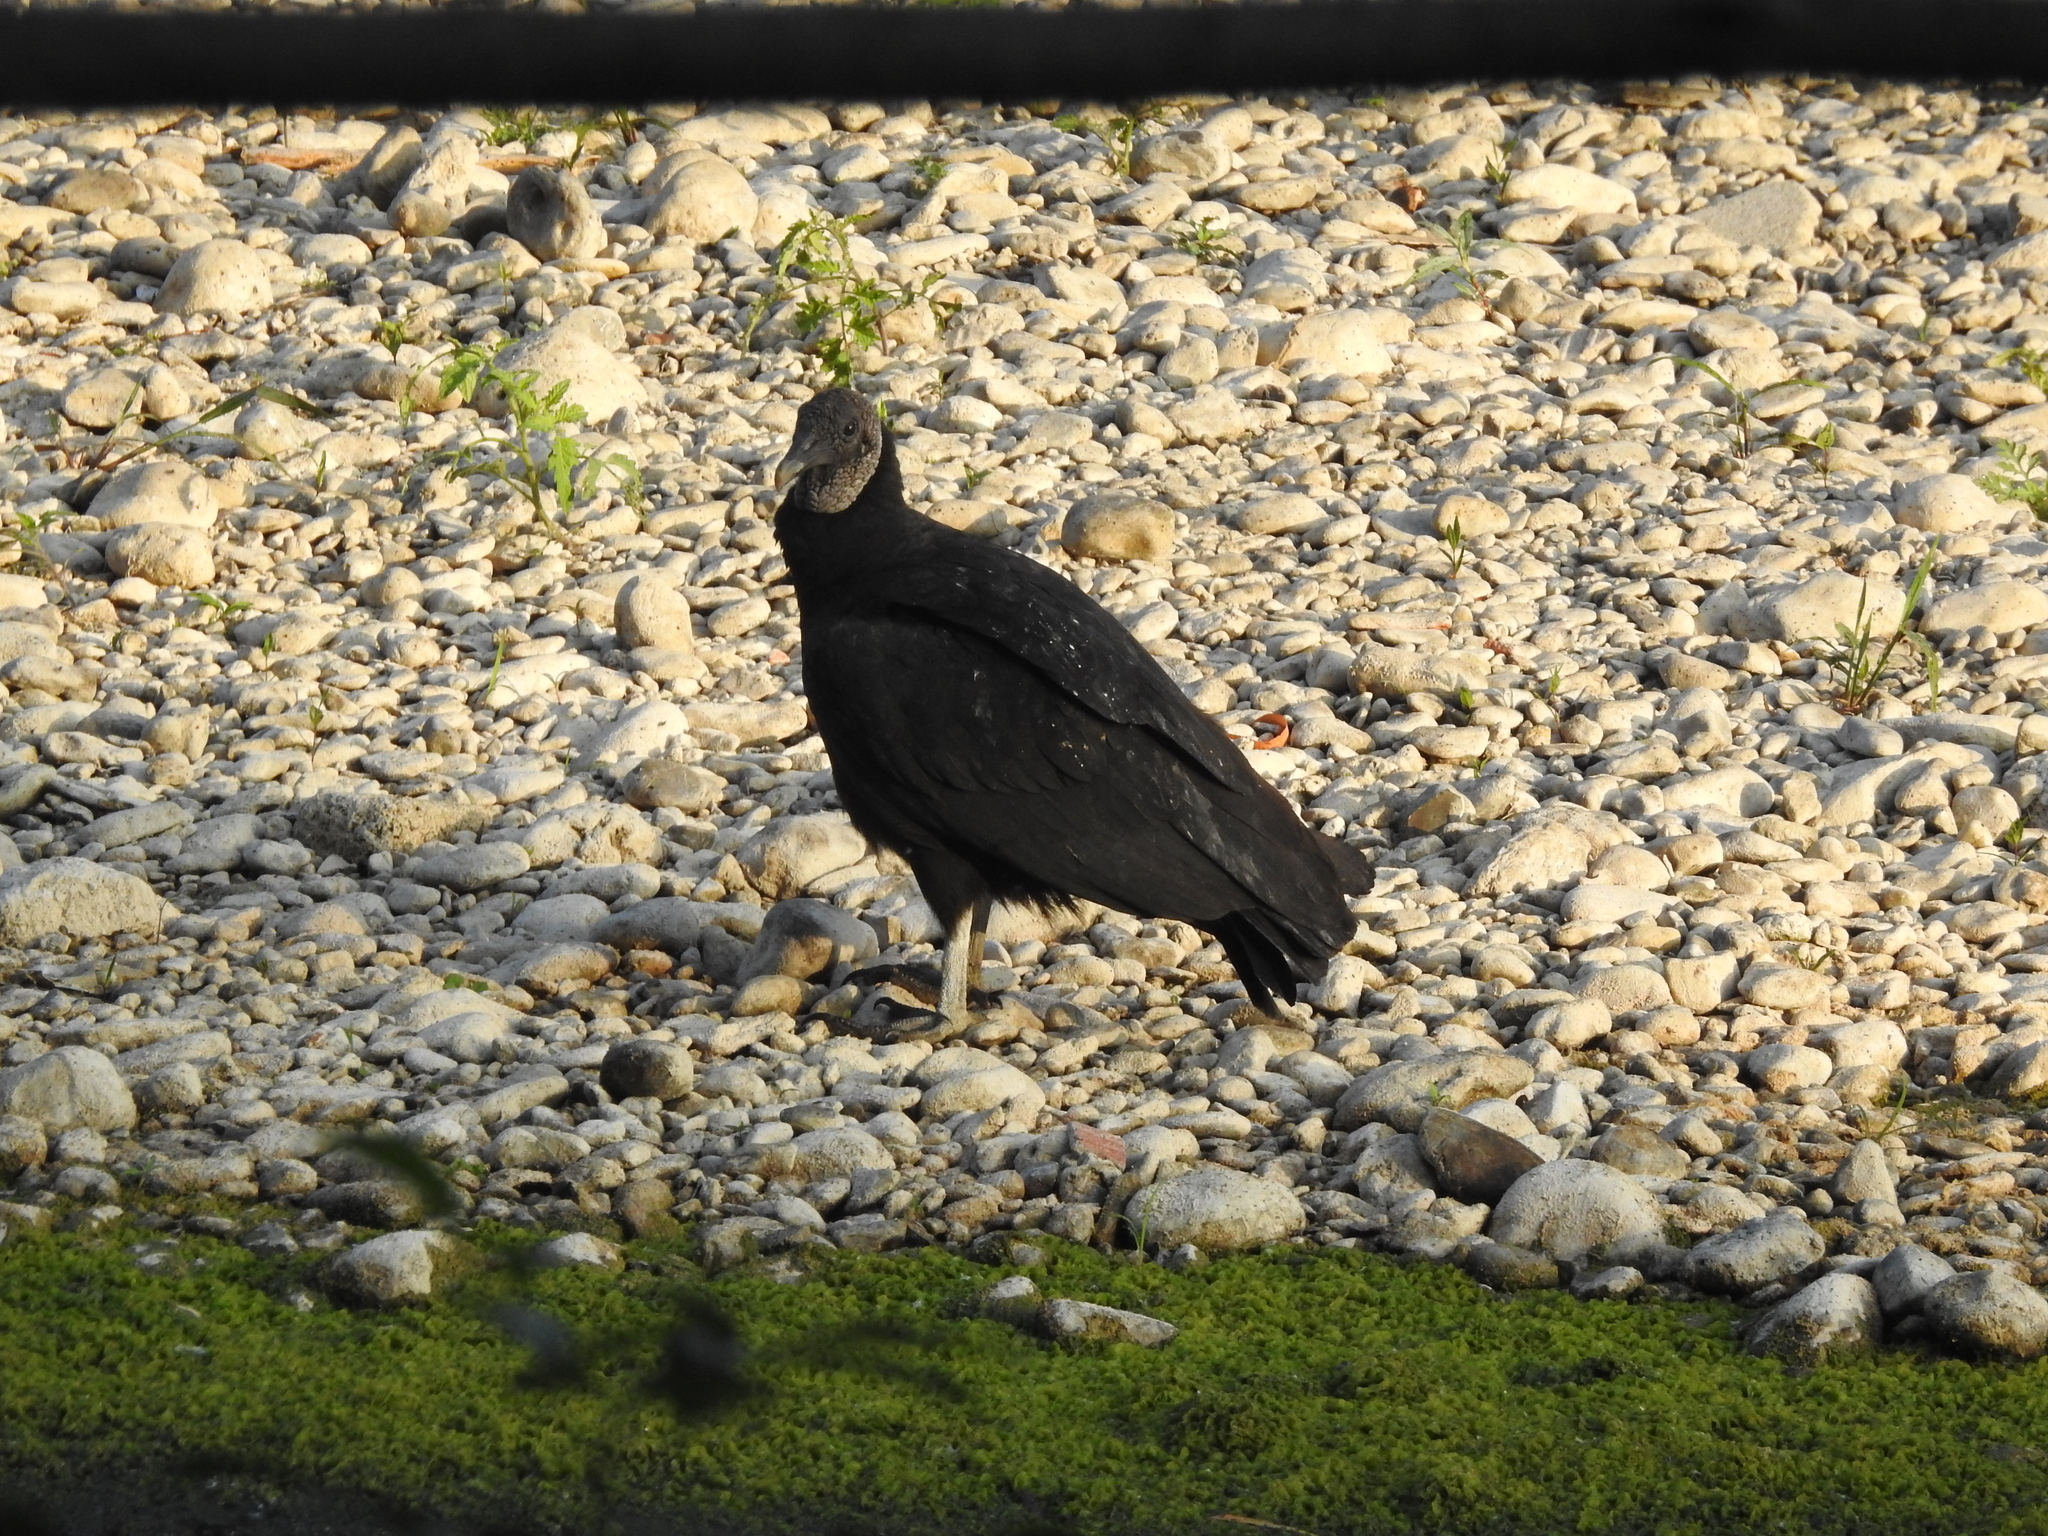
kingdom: Animalia
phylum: Chordata
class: Aves
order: Accipitriformes
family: Cathartidae
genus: Coragyps
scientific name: Coragyps atratus
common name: Black vulture
